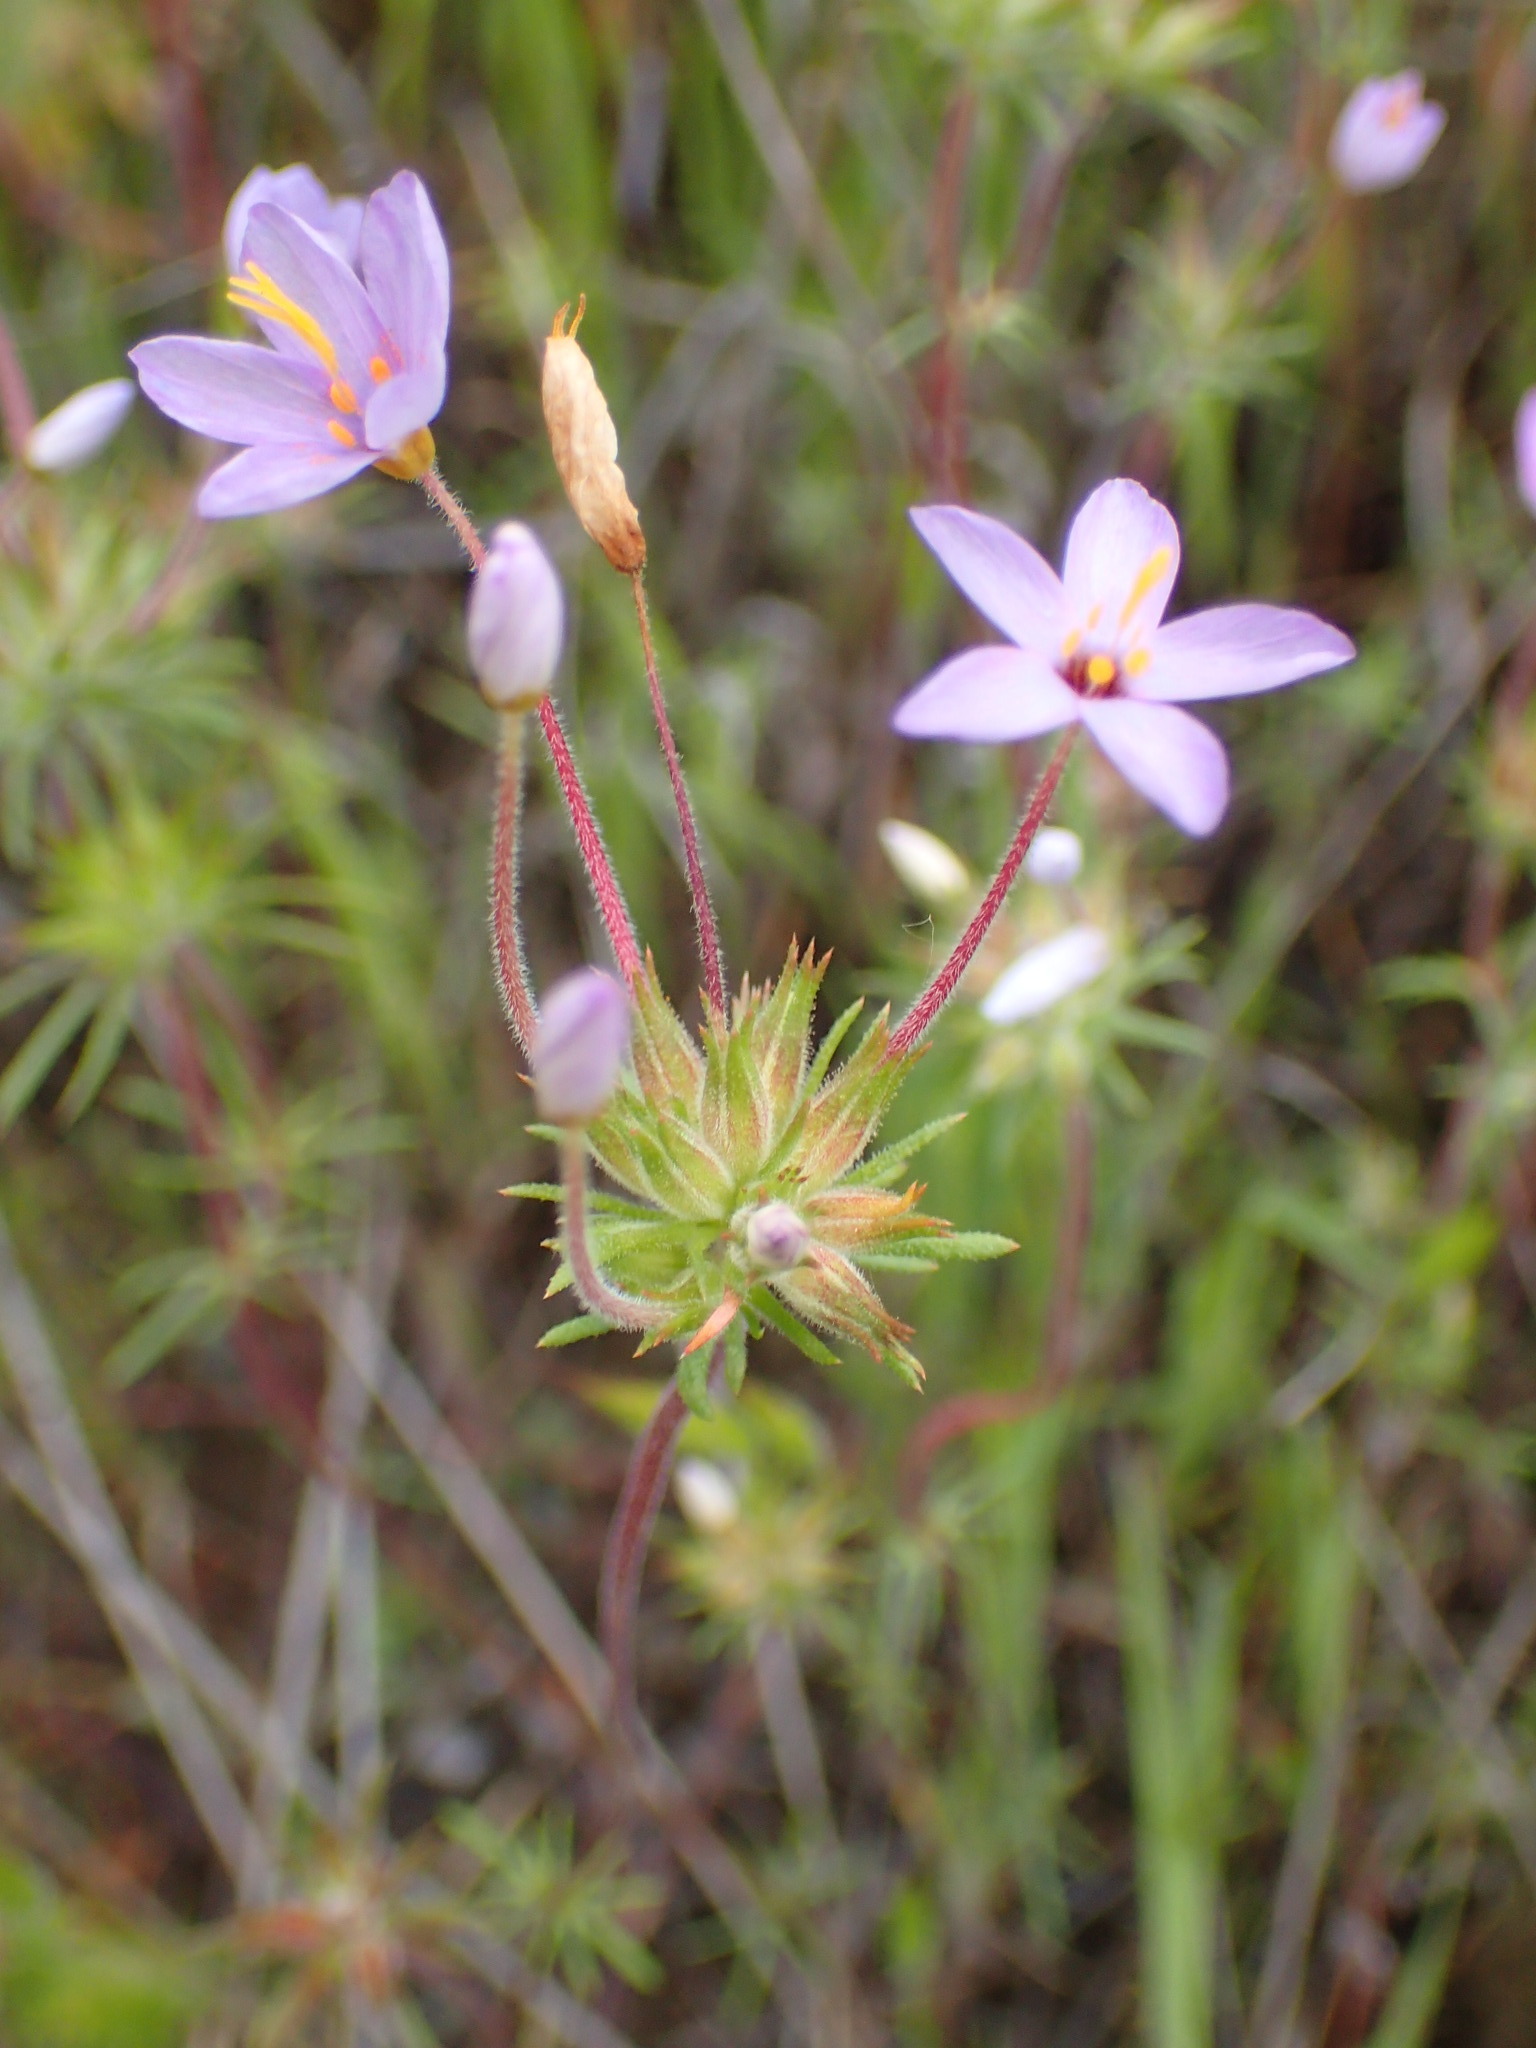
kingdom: Plantae
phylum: Tracheophyta
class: Magnoliopsida
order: Ericales
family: Polemoniaceae
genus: Leptosiphon
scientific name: Leptosiphon parviflorus
